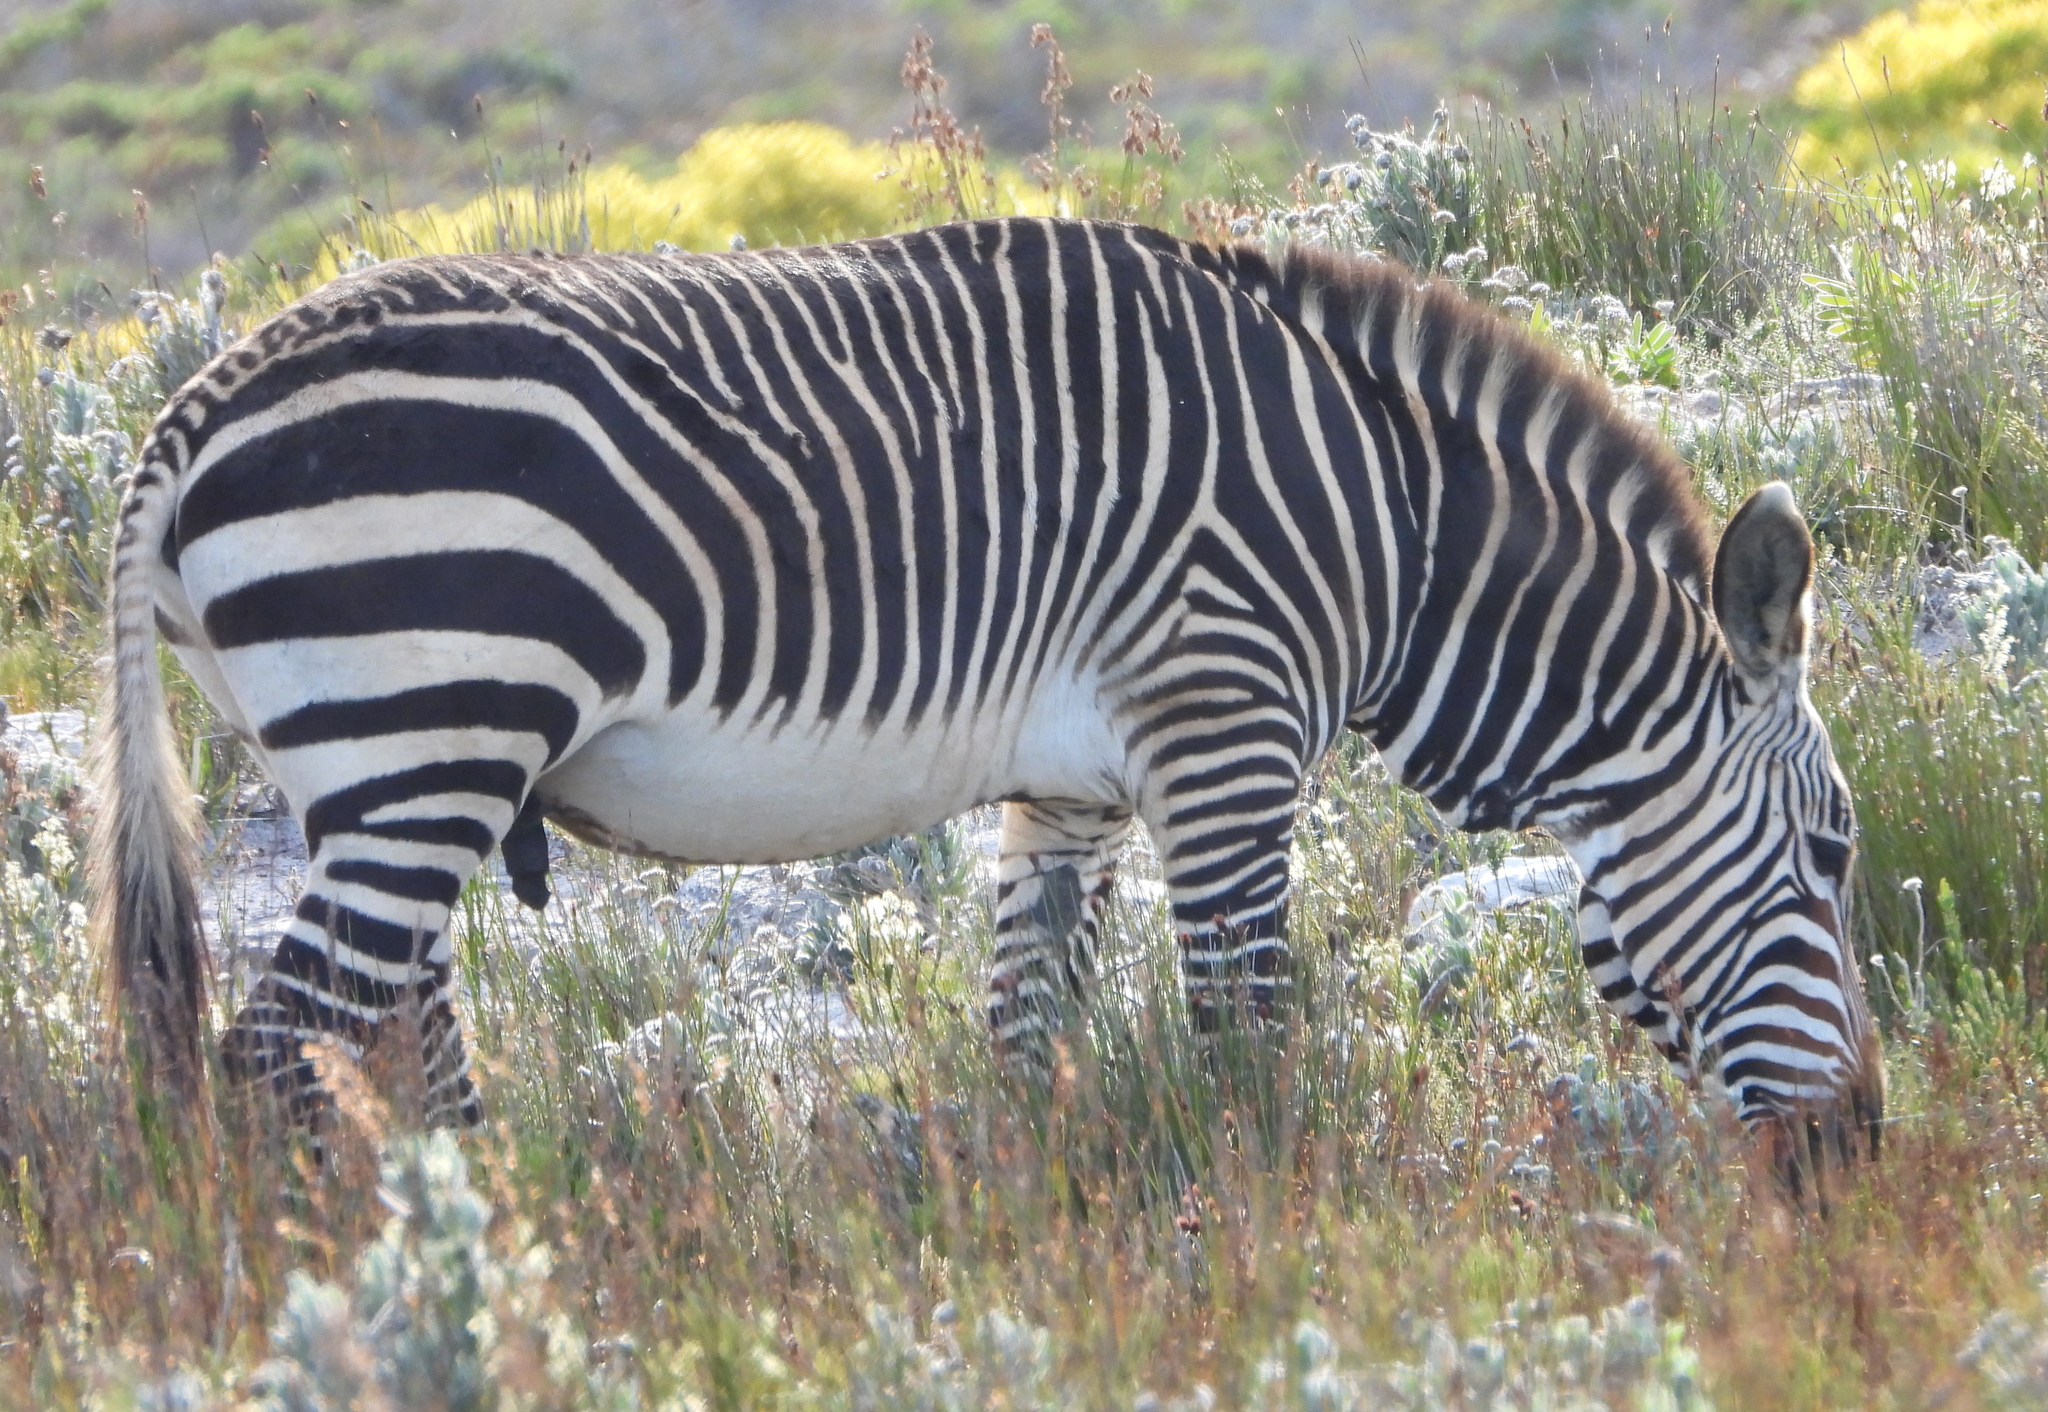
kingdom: Animalia
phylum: Chordata
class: Mammalia
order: Perissodactyla
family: Equidae
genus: Equus
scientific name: Equus zebra
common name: Mountain zebra
